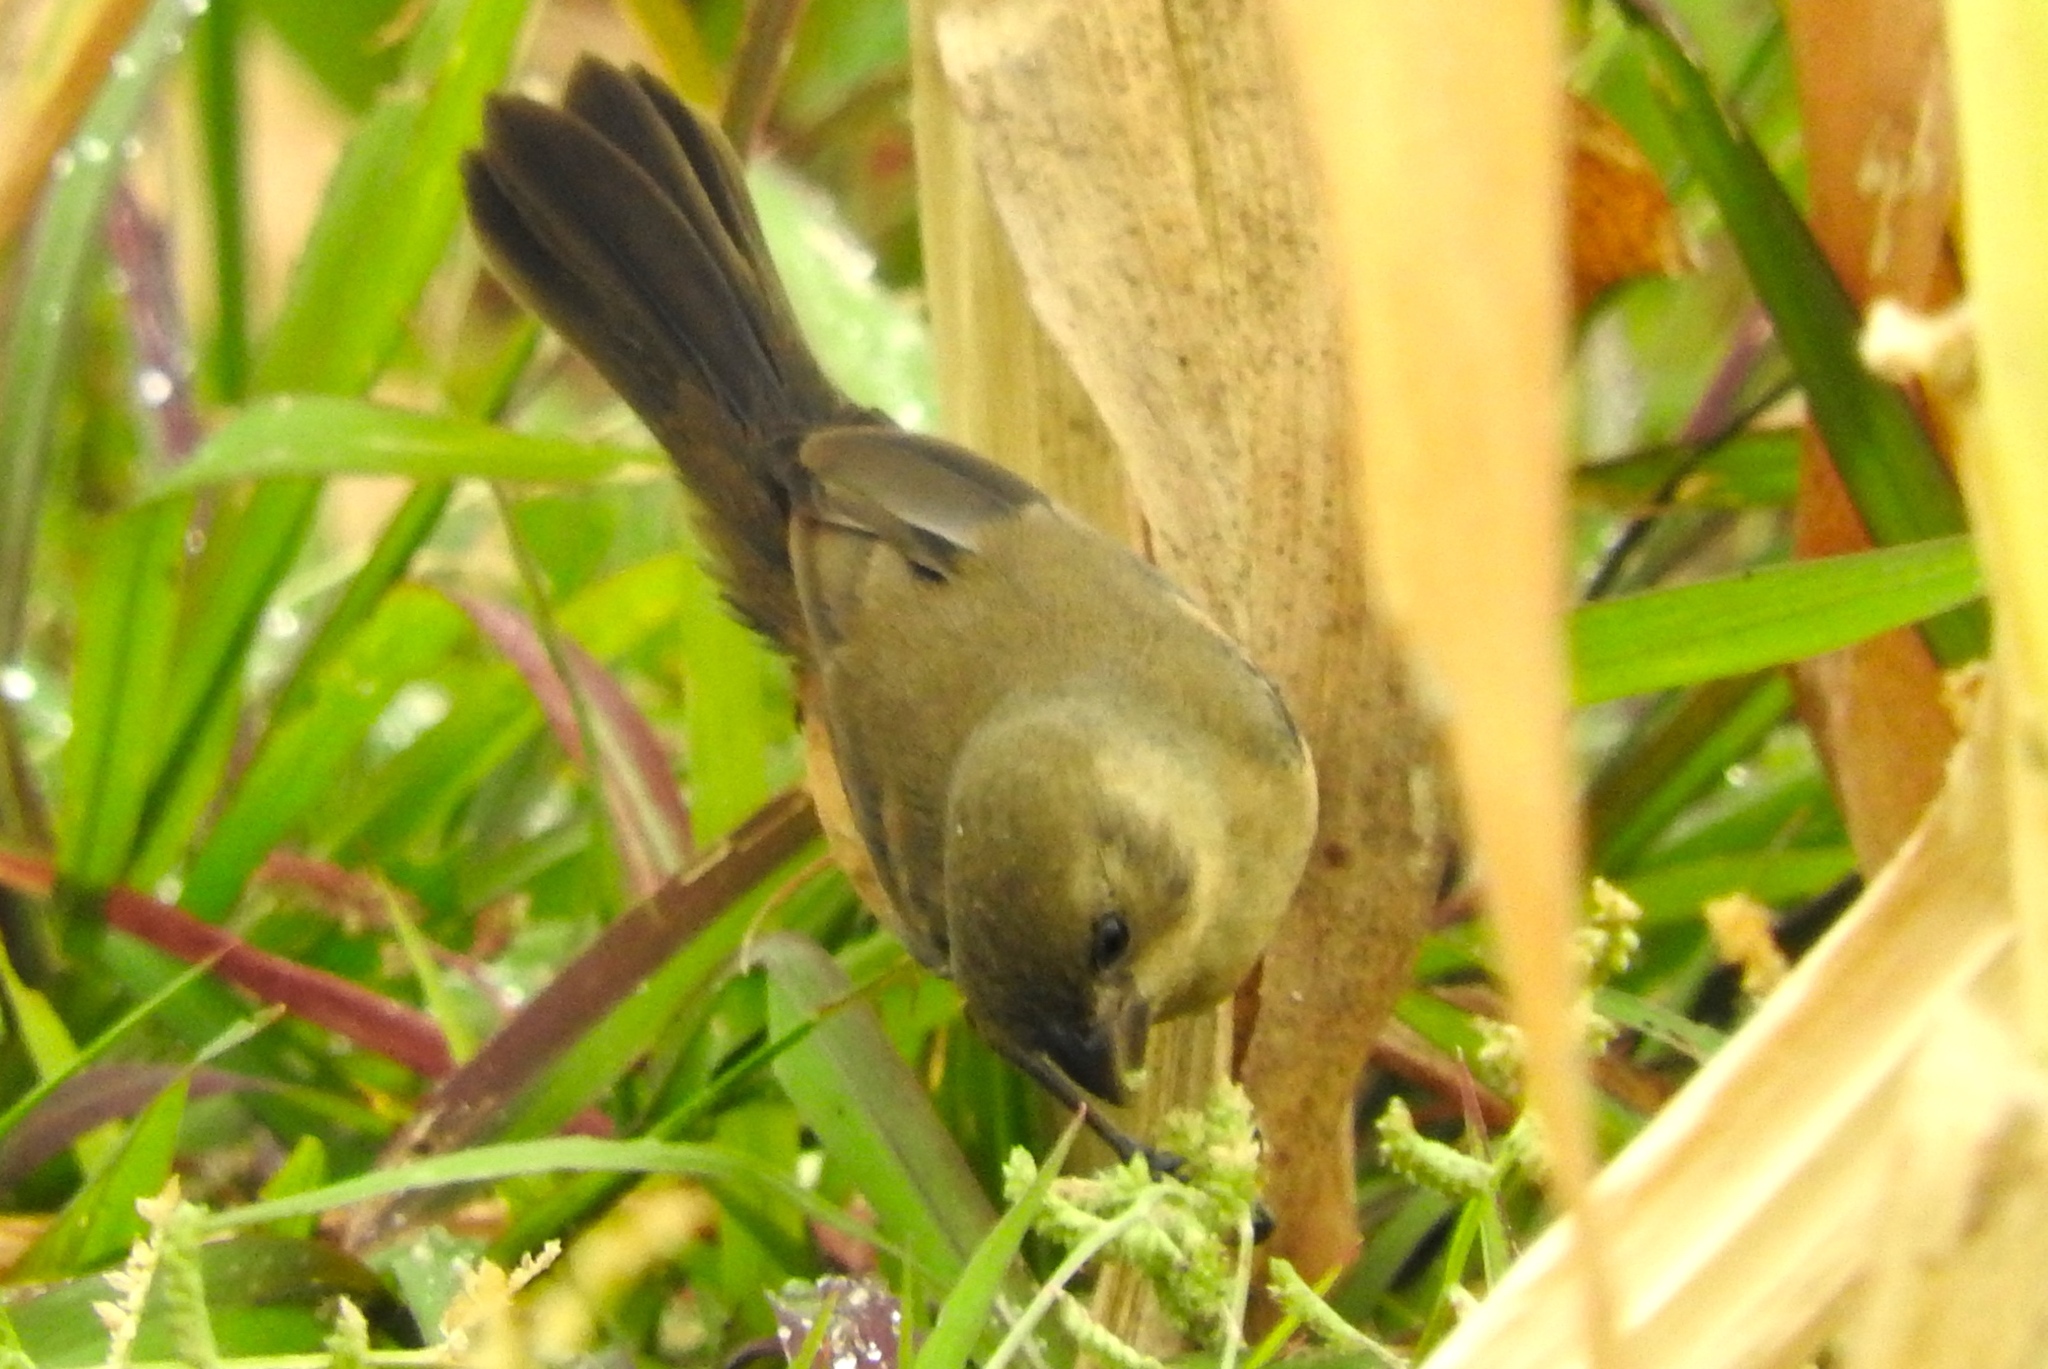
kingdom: Animalia
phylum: Chordata
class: Aves
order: Passeriformes
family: Thraupidae
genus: Sporophila
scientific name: Sporophila torqueola
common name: White-collared seedeater
